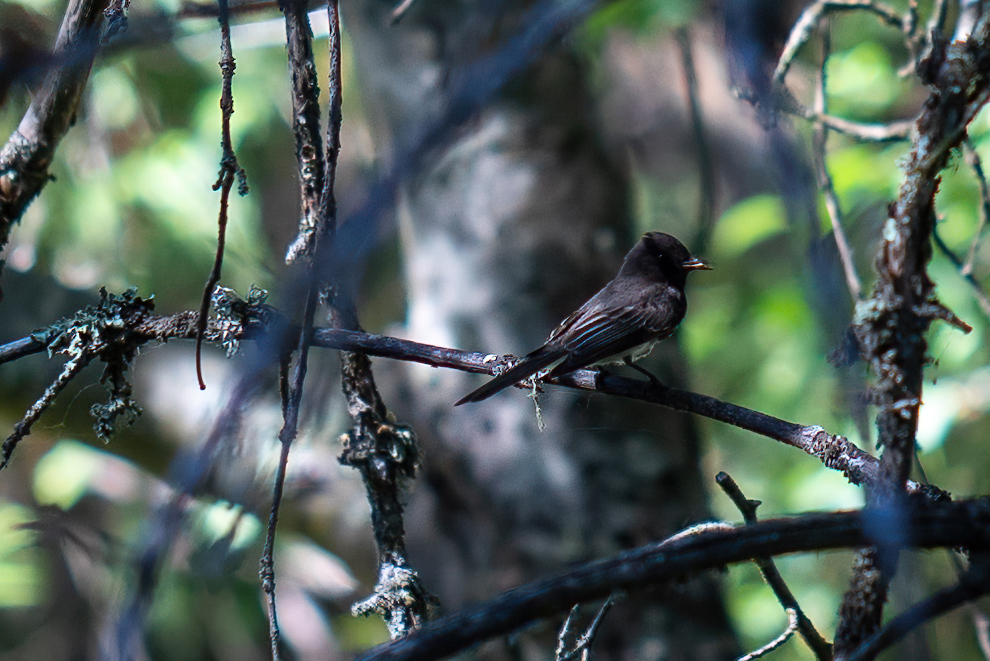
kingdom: Animalia
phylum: Chordata
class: Aves
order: Passeriformes
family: Tyrannidae
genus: Sayornis
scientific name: Sayornis nigricans
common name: Black phoebe
